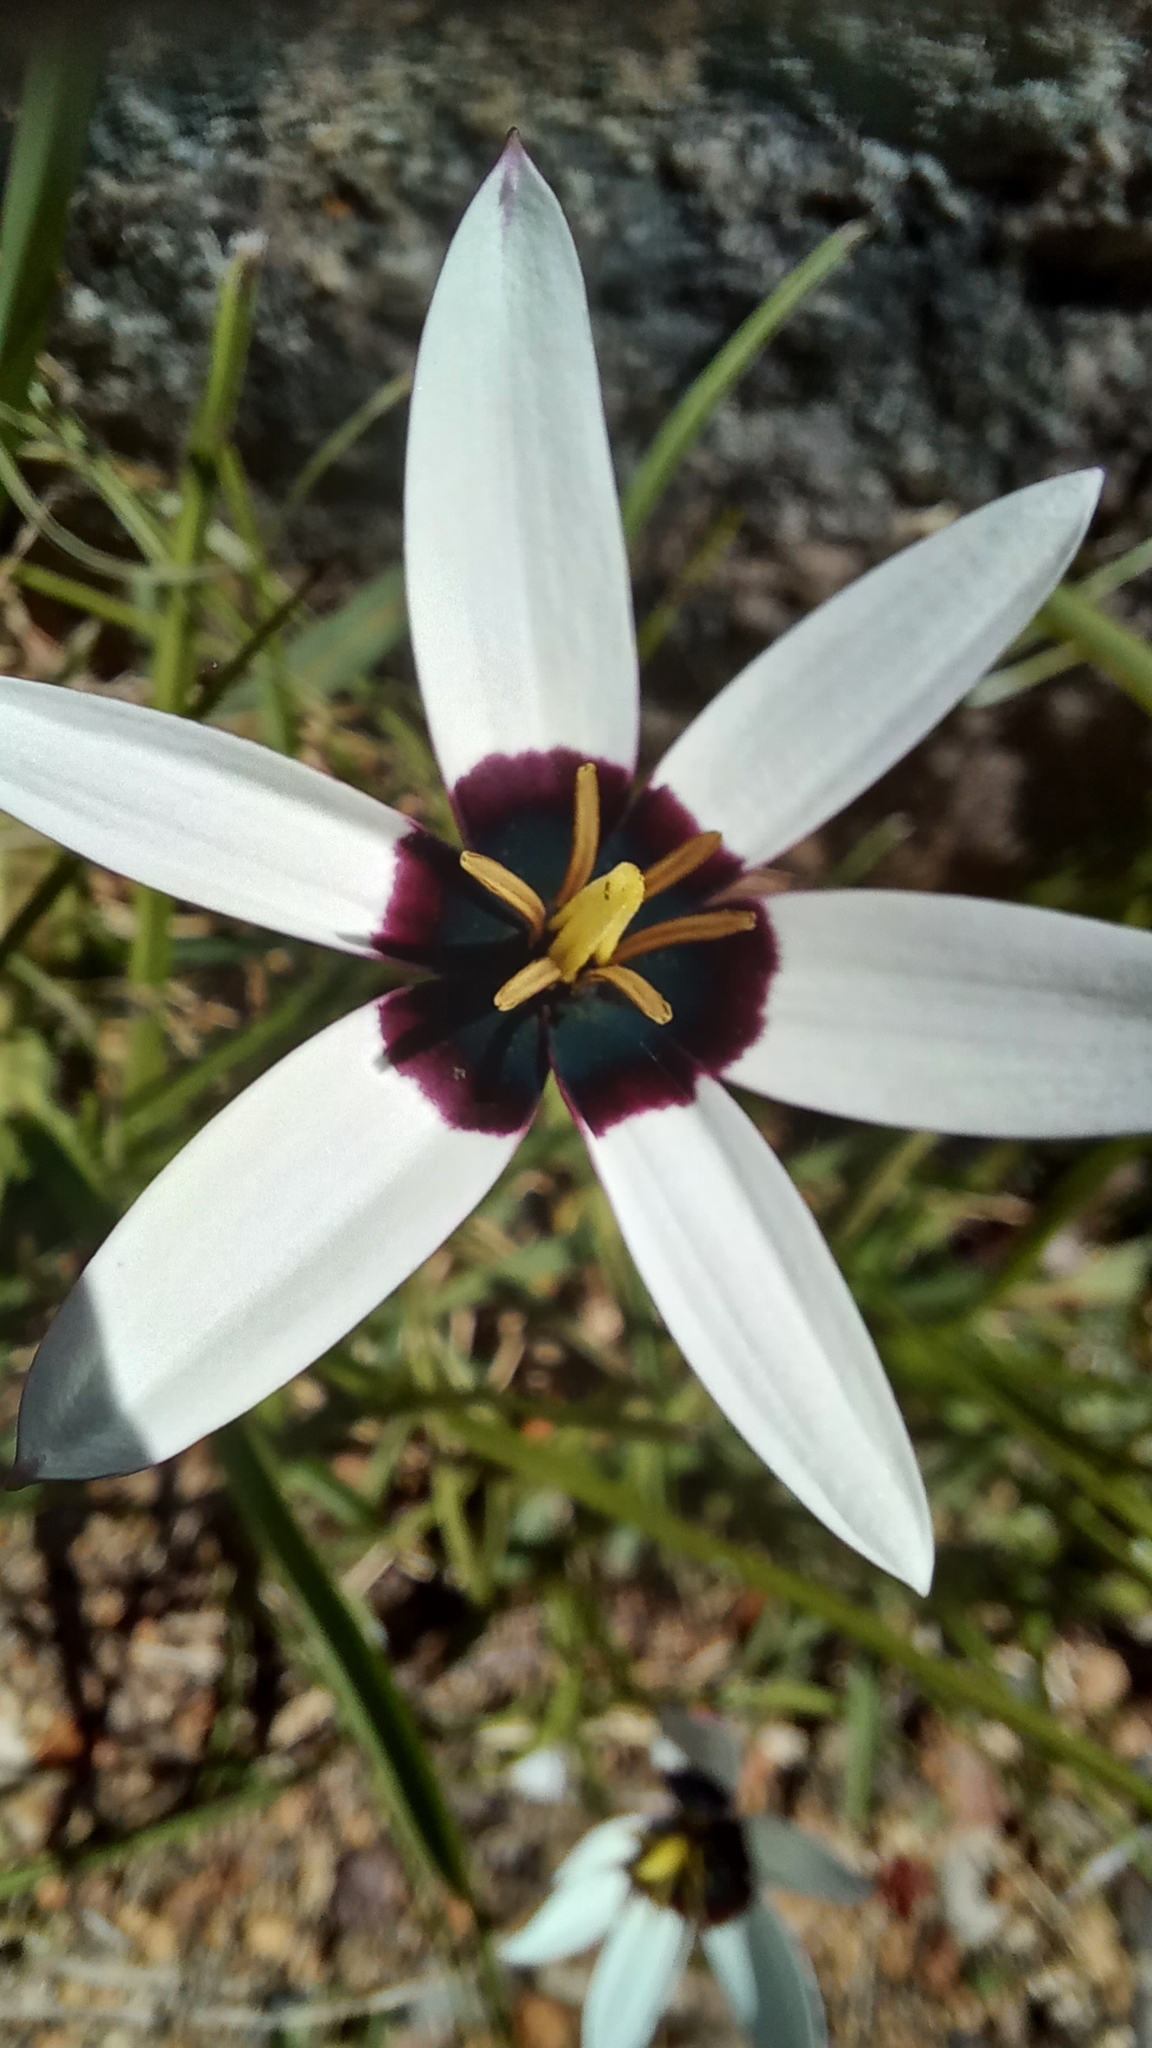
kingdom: Plantae
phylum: Tracheophyta
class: Liliopsida
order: Asparagales
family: Hypoxidaceae
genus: Pauridia
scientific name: Pauridia capensis
